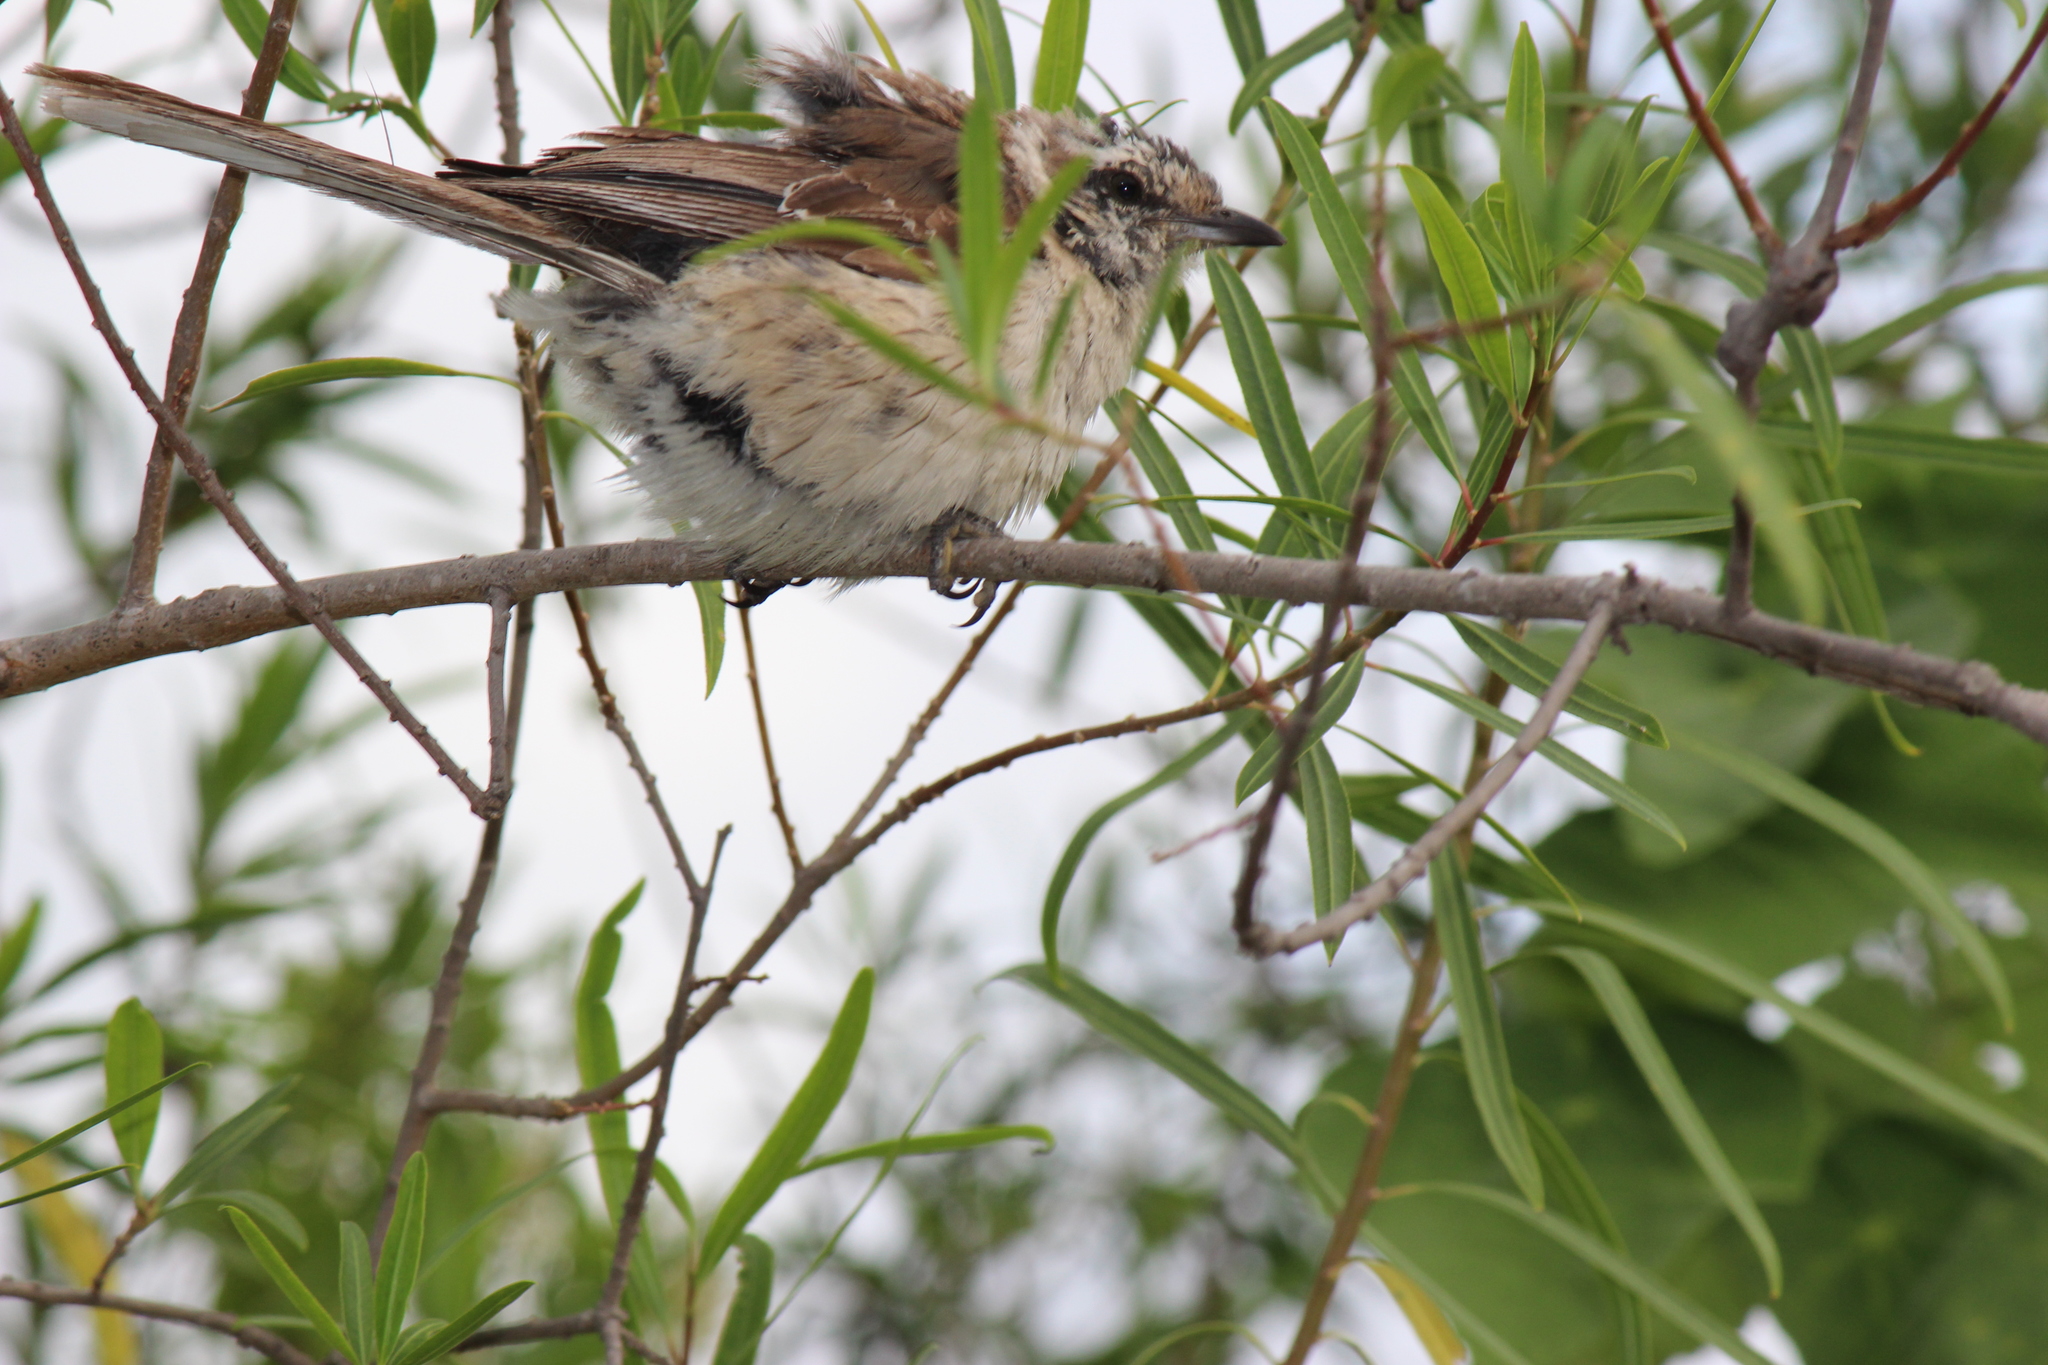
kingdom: Animalia
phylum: Chordata
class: Aves
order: Passeriformes
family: Mimidae
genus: Mimus
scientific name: Mimus saturninus
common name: Chalk-browed mockingbird
